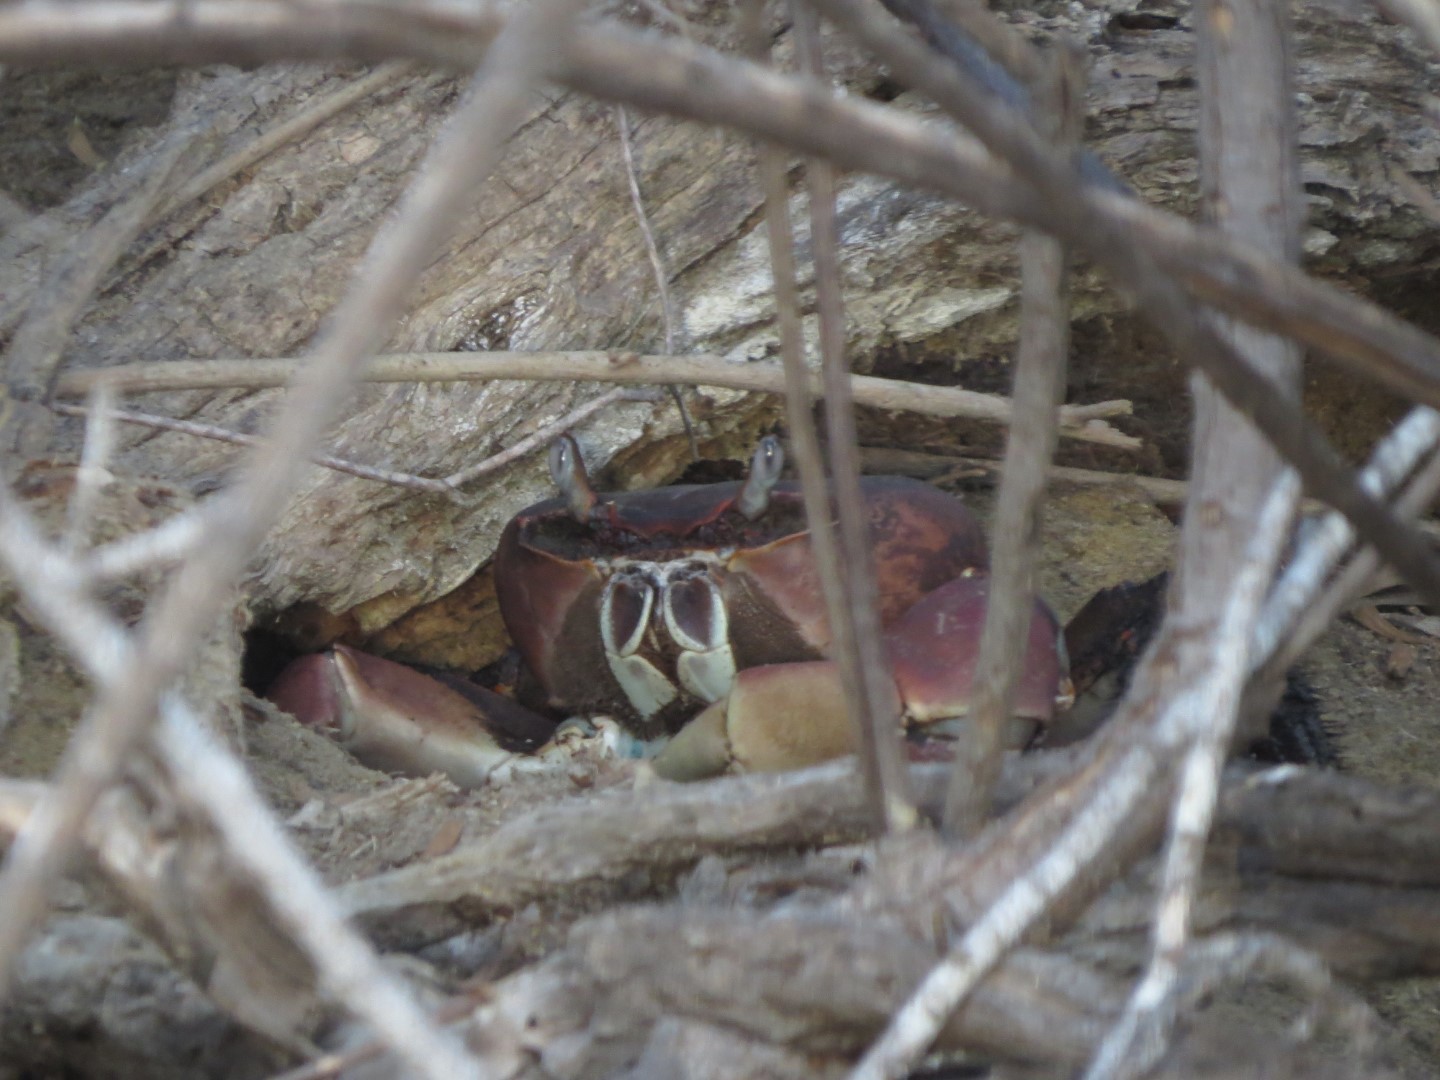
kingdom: Animalia
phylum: Arthropoda
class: Malacostraca
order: Decapoda
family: Gecarcinidae
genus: Cardisoma
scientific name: Cardisoma carnifex
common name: Brown land crab
